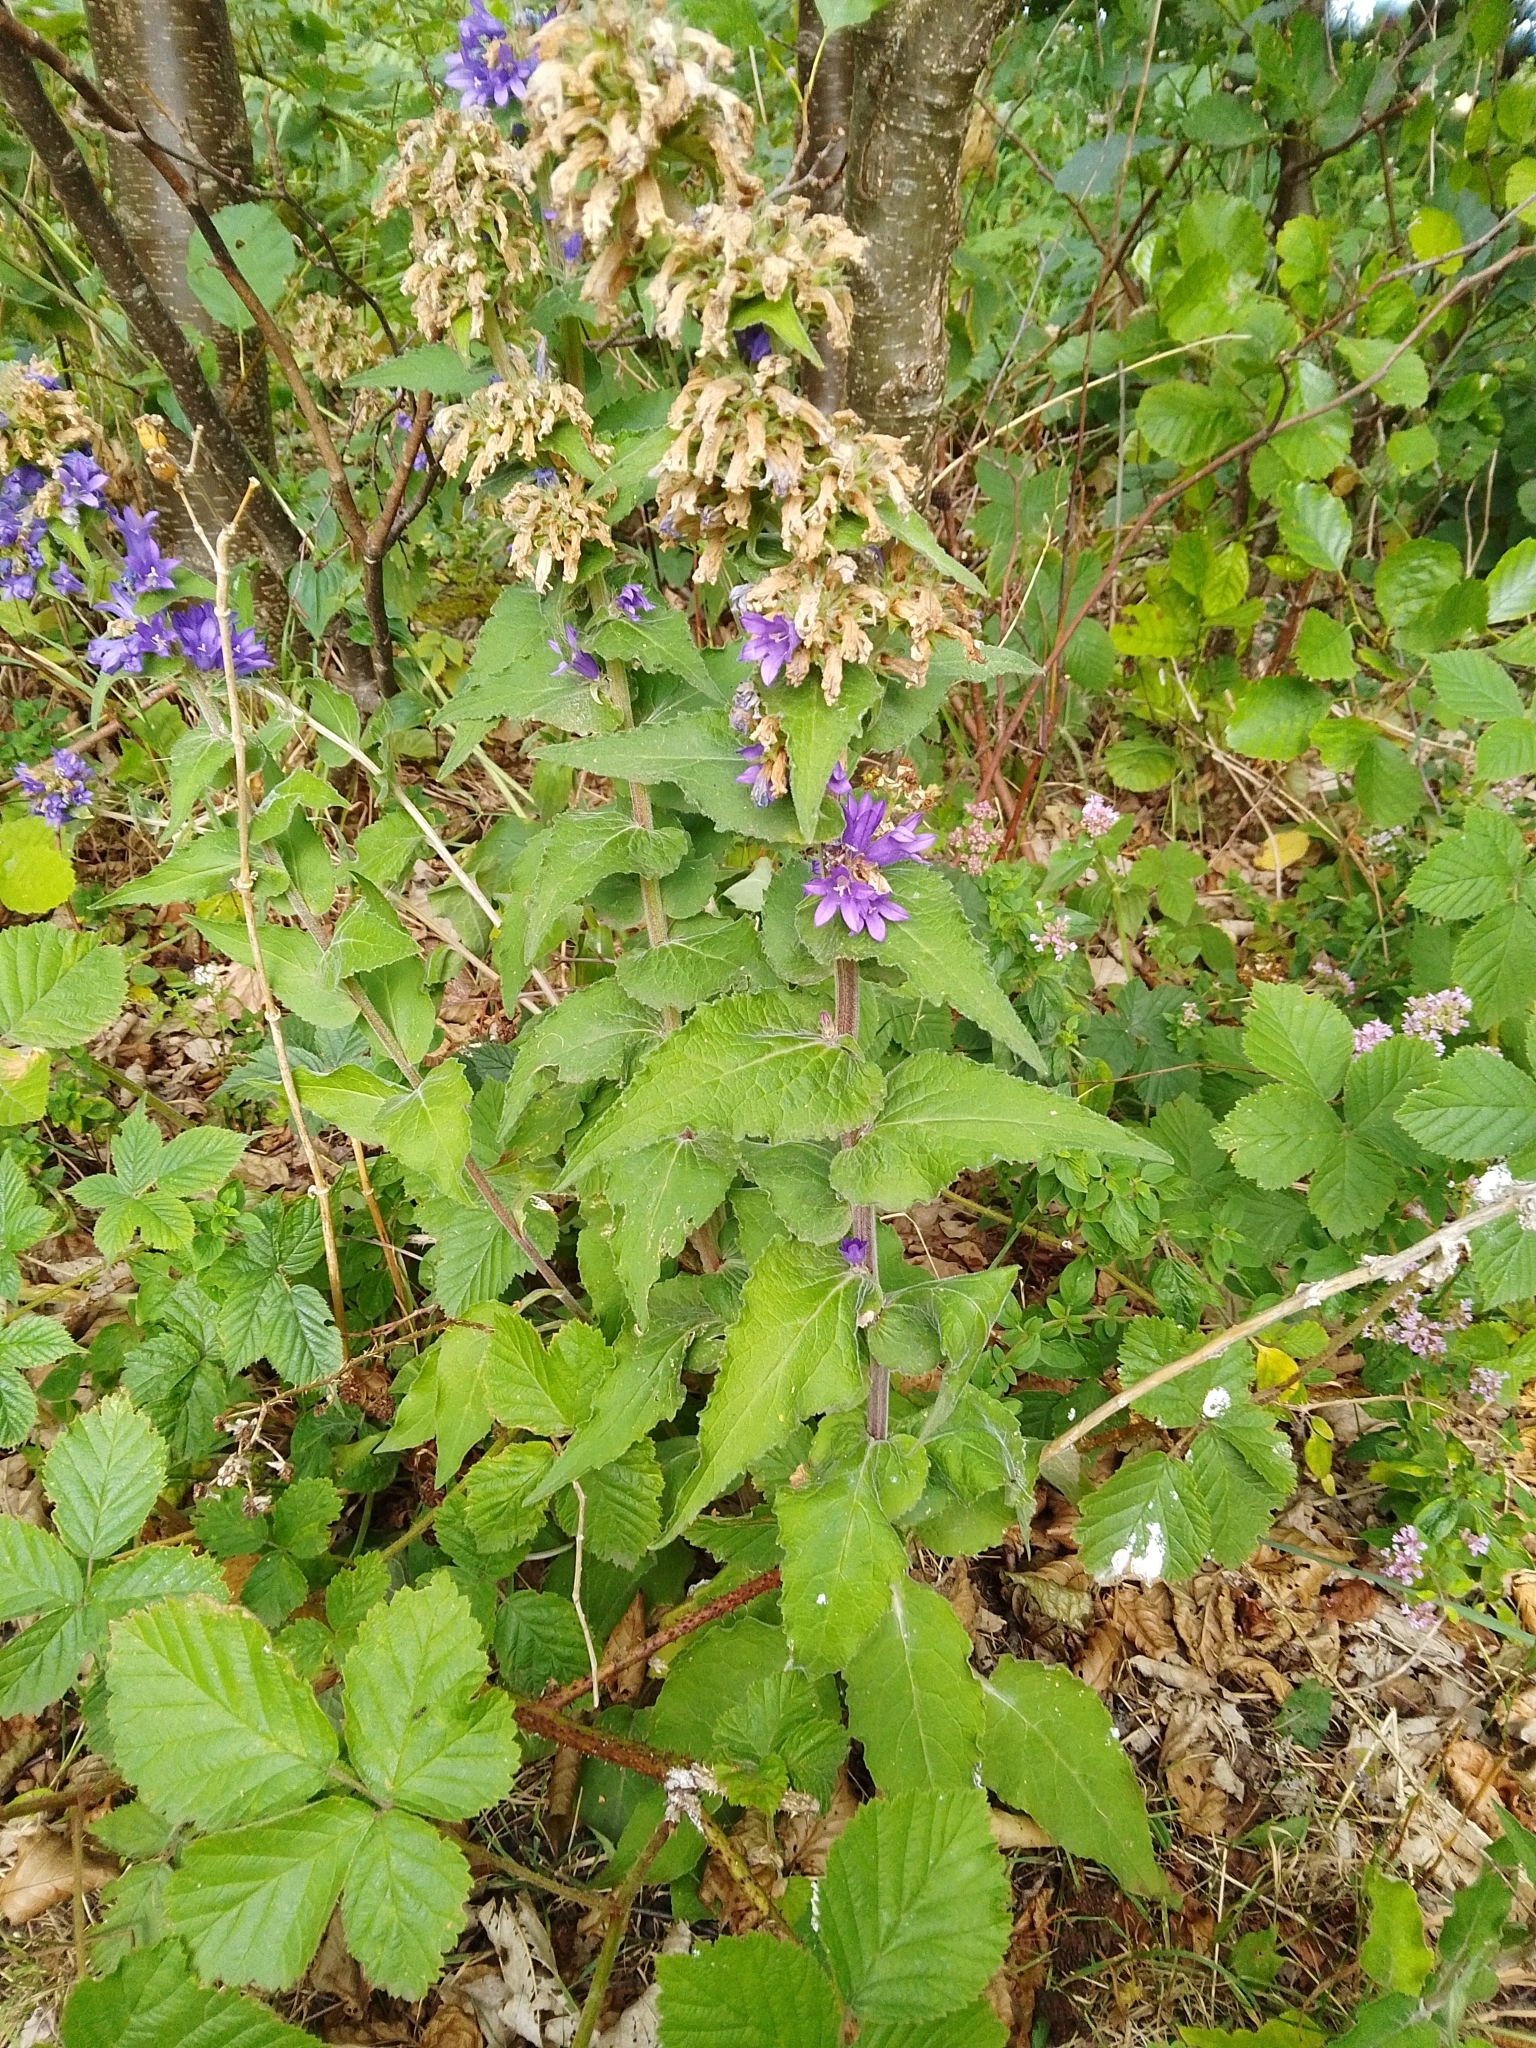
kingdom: Plantae
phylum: Tracheophyta
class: Magnoliopsida
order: Asterales
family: Campanulaceae
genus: Campanula
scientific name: Campanula glomerata
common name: Clustered bellflower
